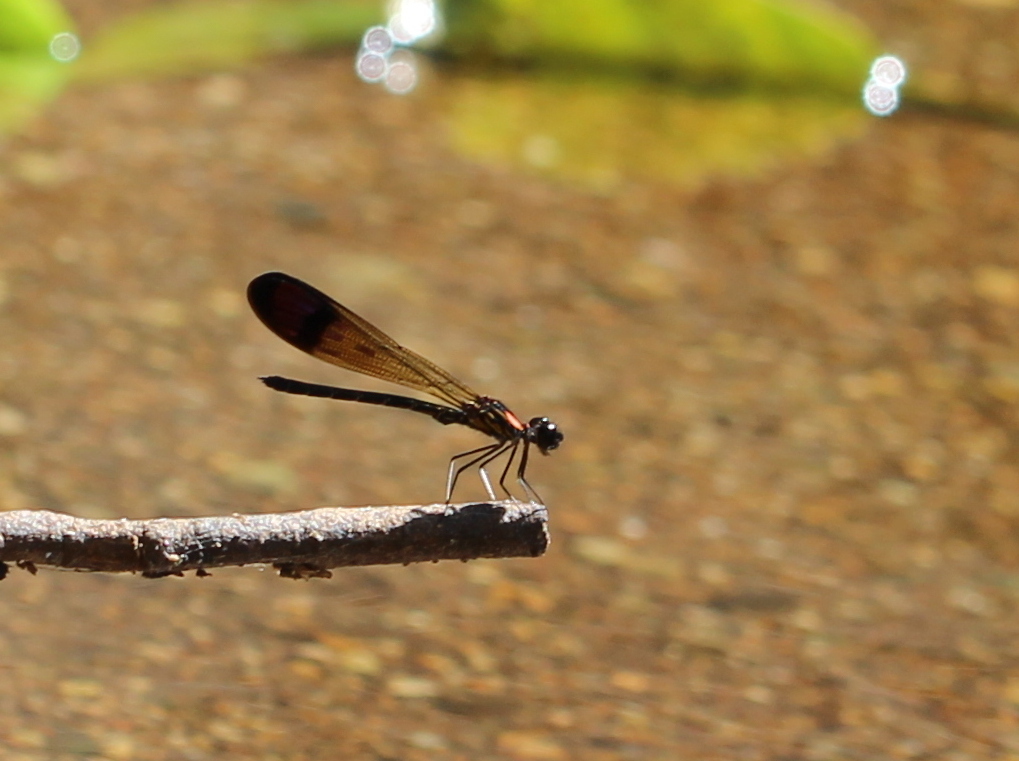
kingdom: Animalia
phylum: Arthropoda
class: Insecta
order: Odonata
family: Chlorocyphidae
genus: Heliocypha
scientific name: Heliocypha bisignata
